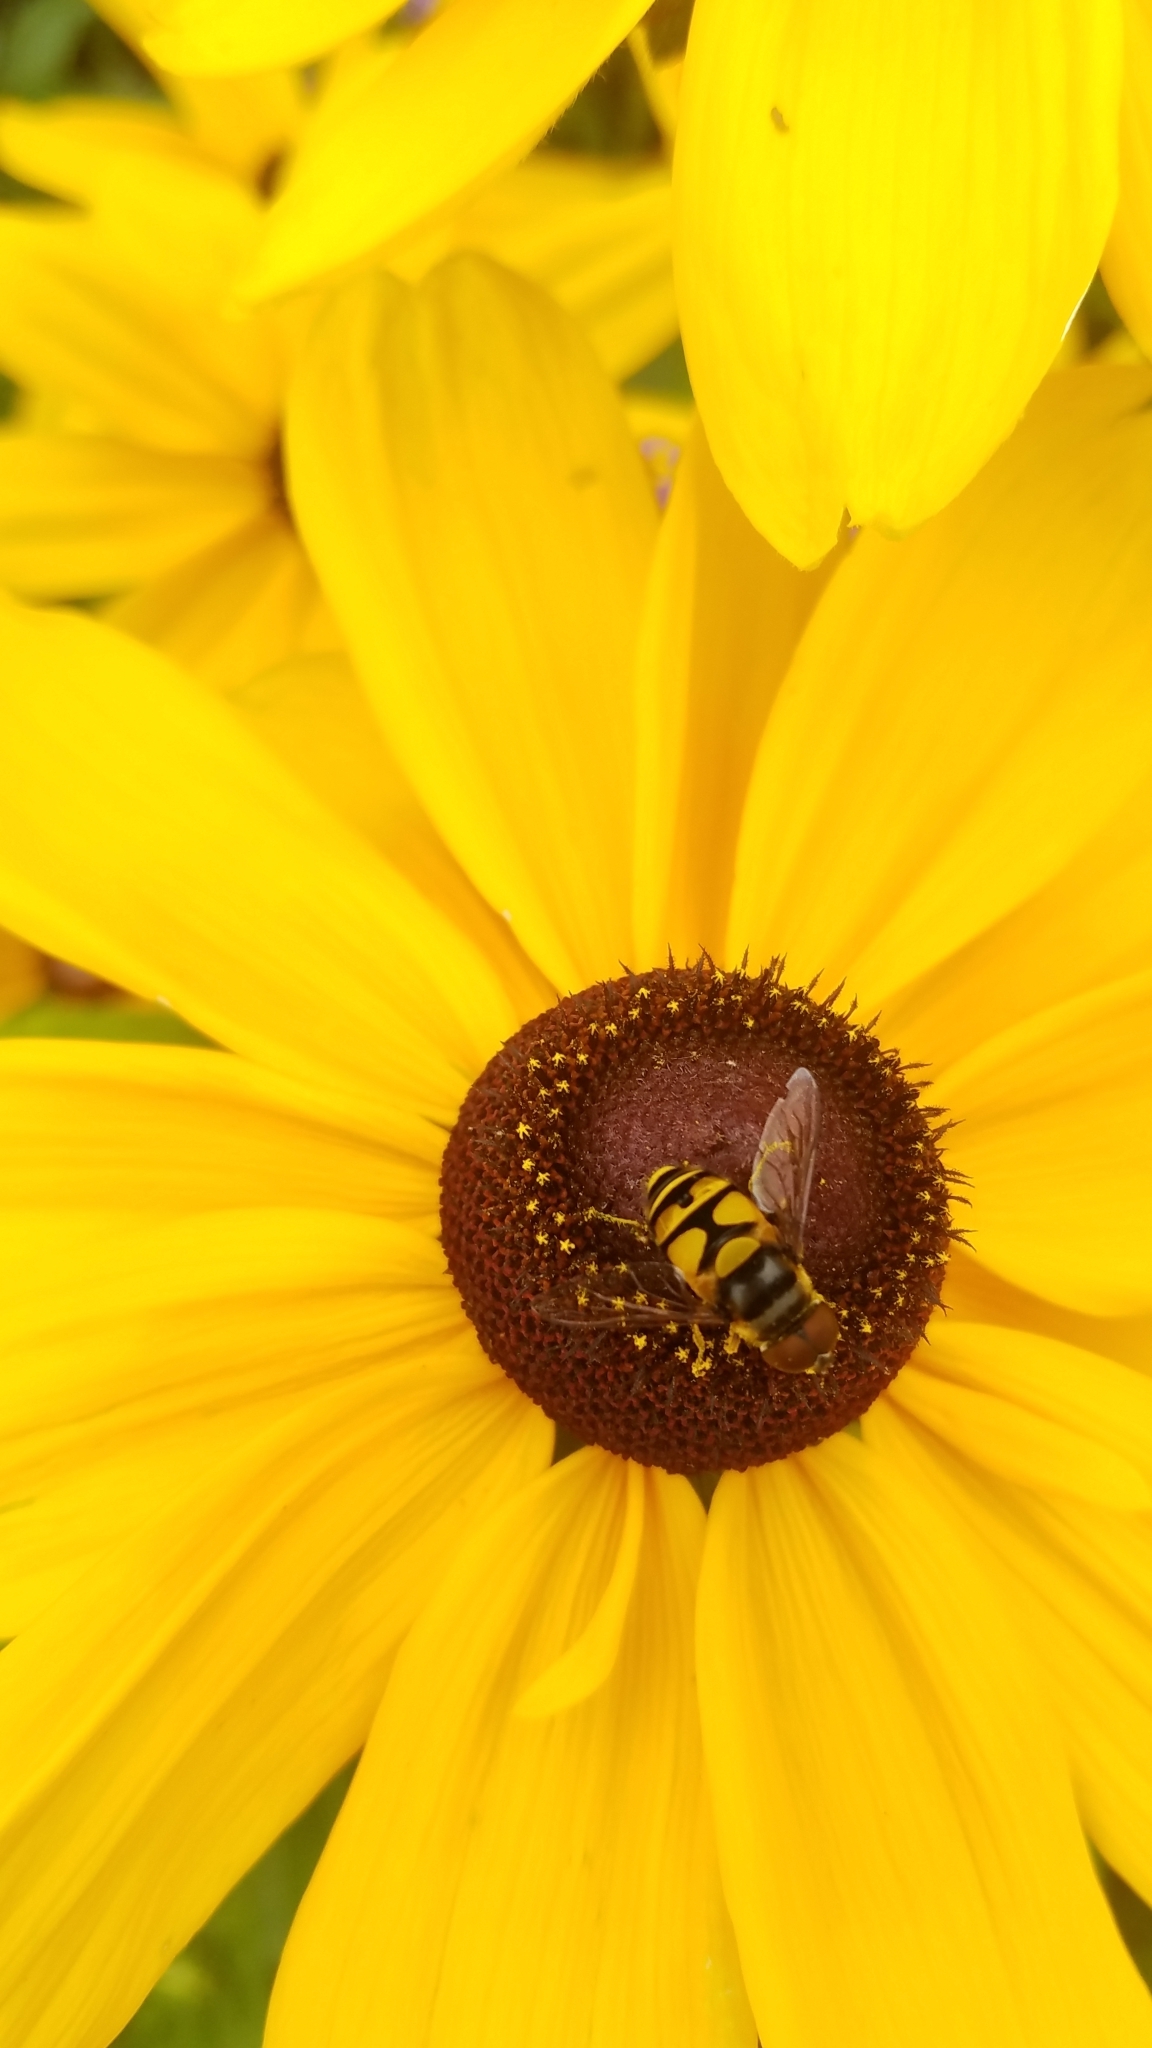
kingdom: Animalia
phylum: Arthropoda
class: Insecta
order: Diptera
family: Syrphidae
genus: Eristalis
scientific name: Eristalis transversa
